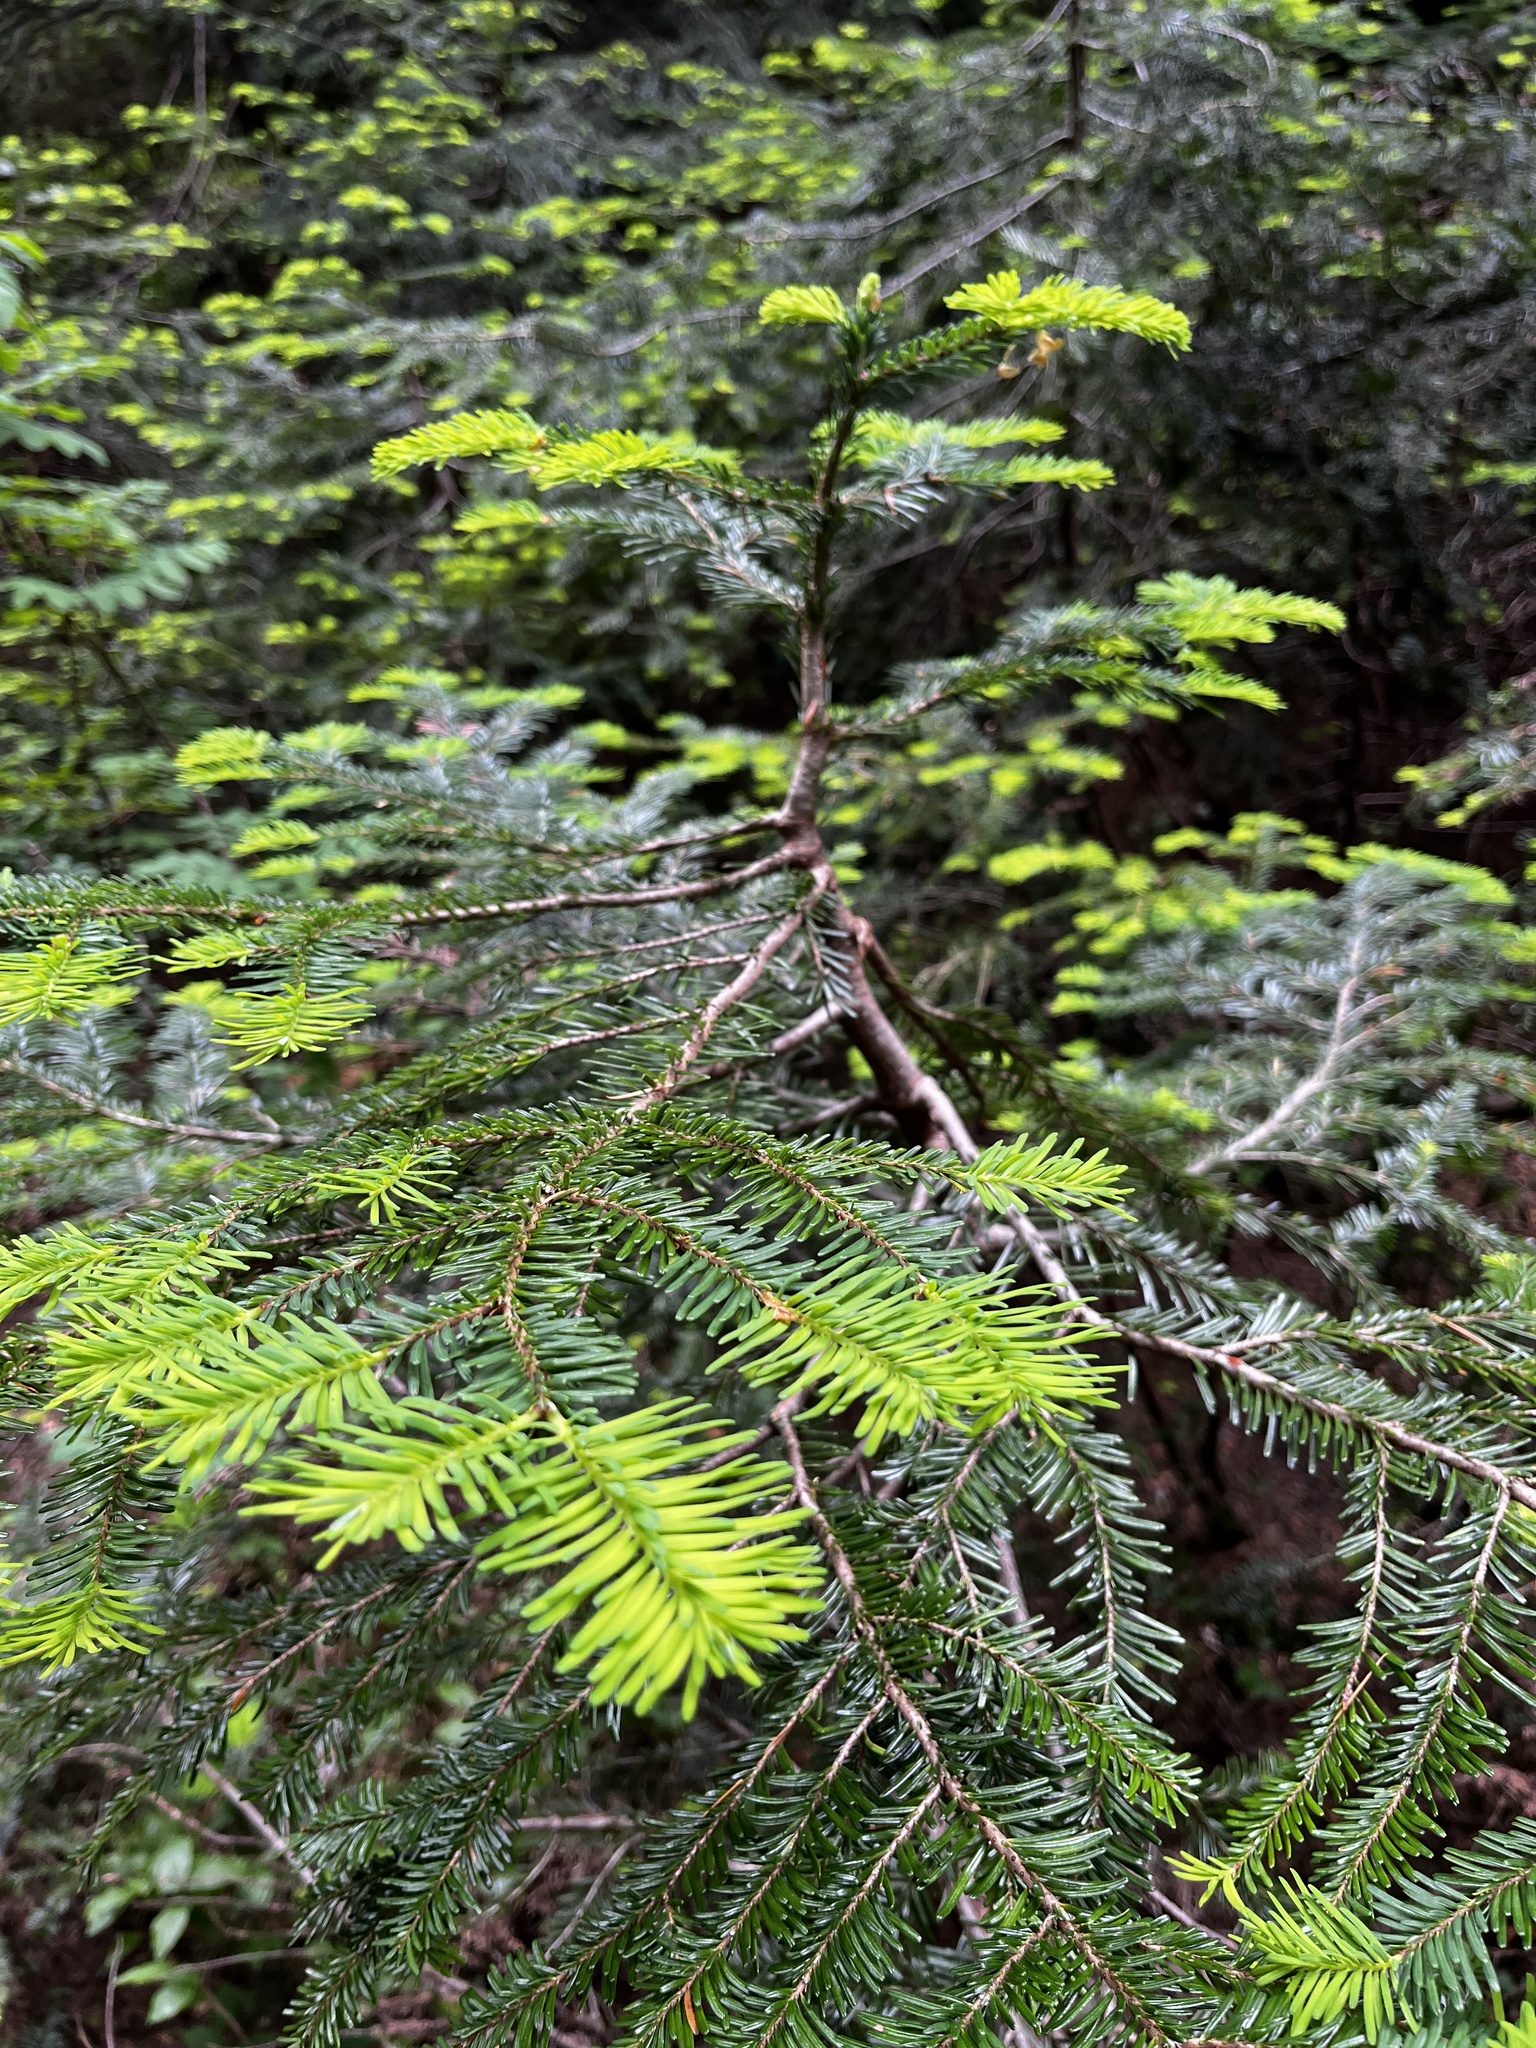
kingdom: Plantae
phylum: Tracheophyta
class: Pinopsida
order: Pinales
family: Pinaceae
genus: Abies
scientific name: Abies amabilis
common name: Pacific silver fir
